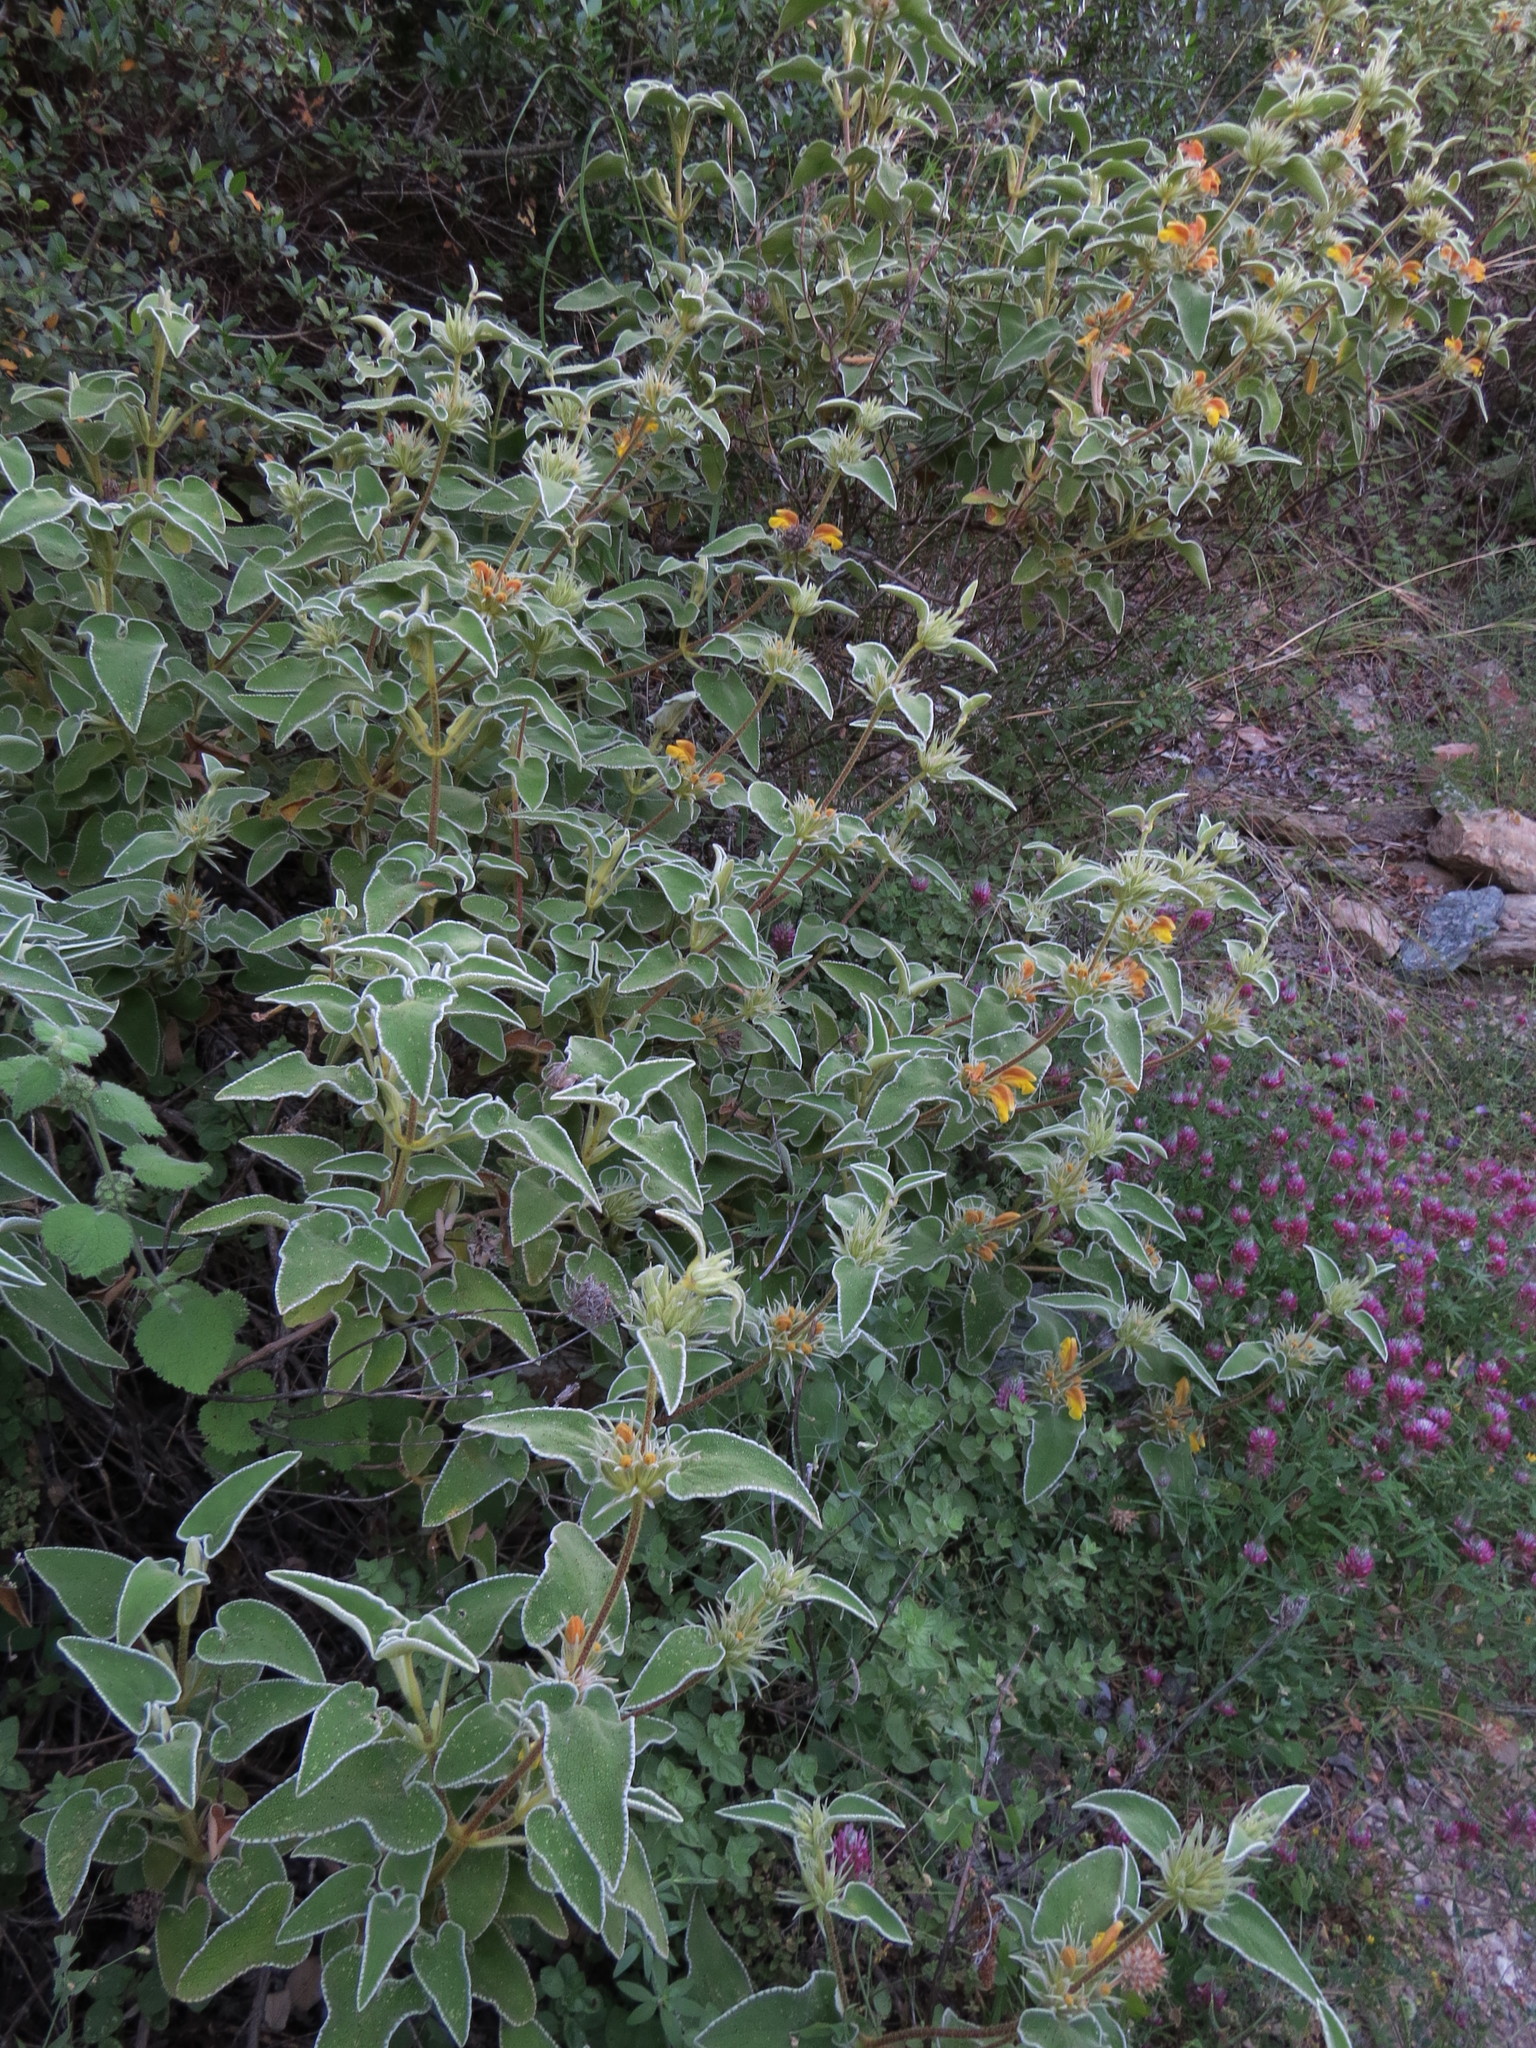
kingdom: Plantae
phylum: Tracheophyta
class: Magnoliopsida
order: Lamiales
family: Lamiaceae
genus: Phlomis
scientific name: Phlomis leucophracta
